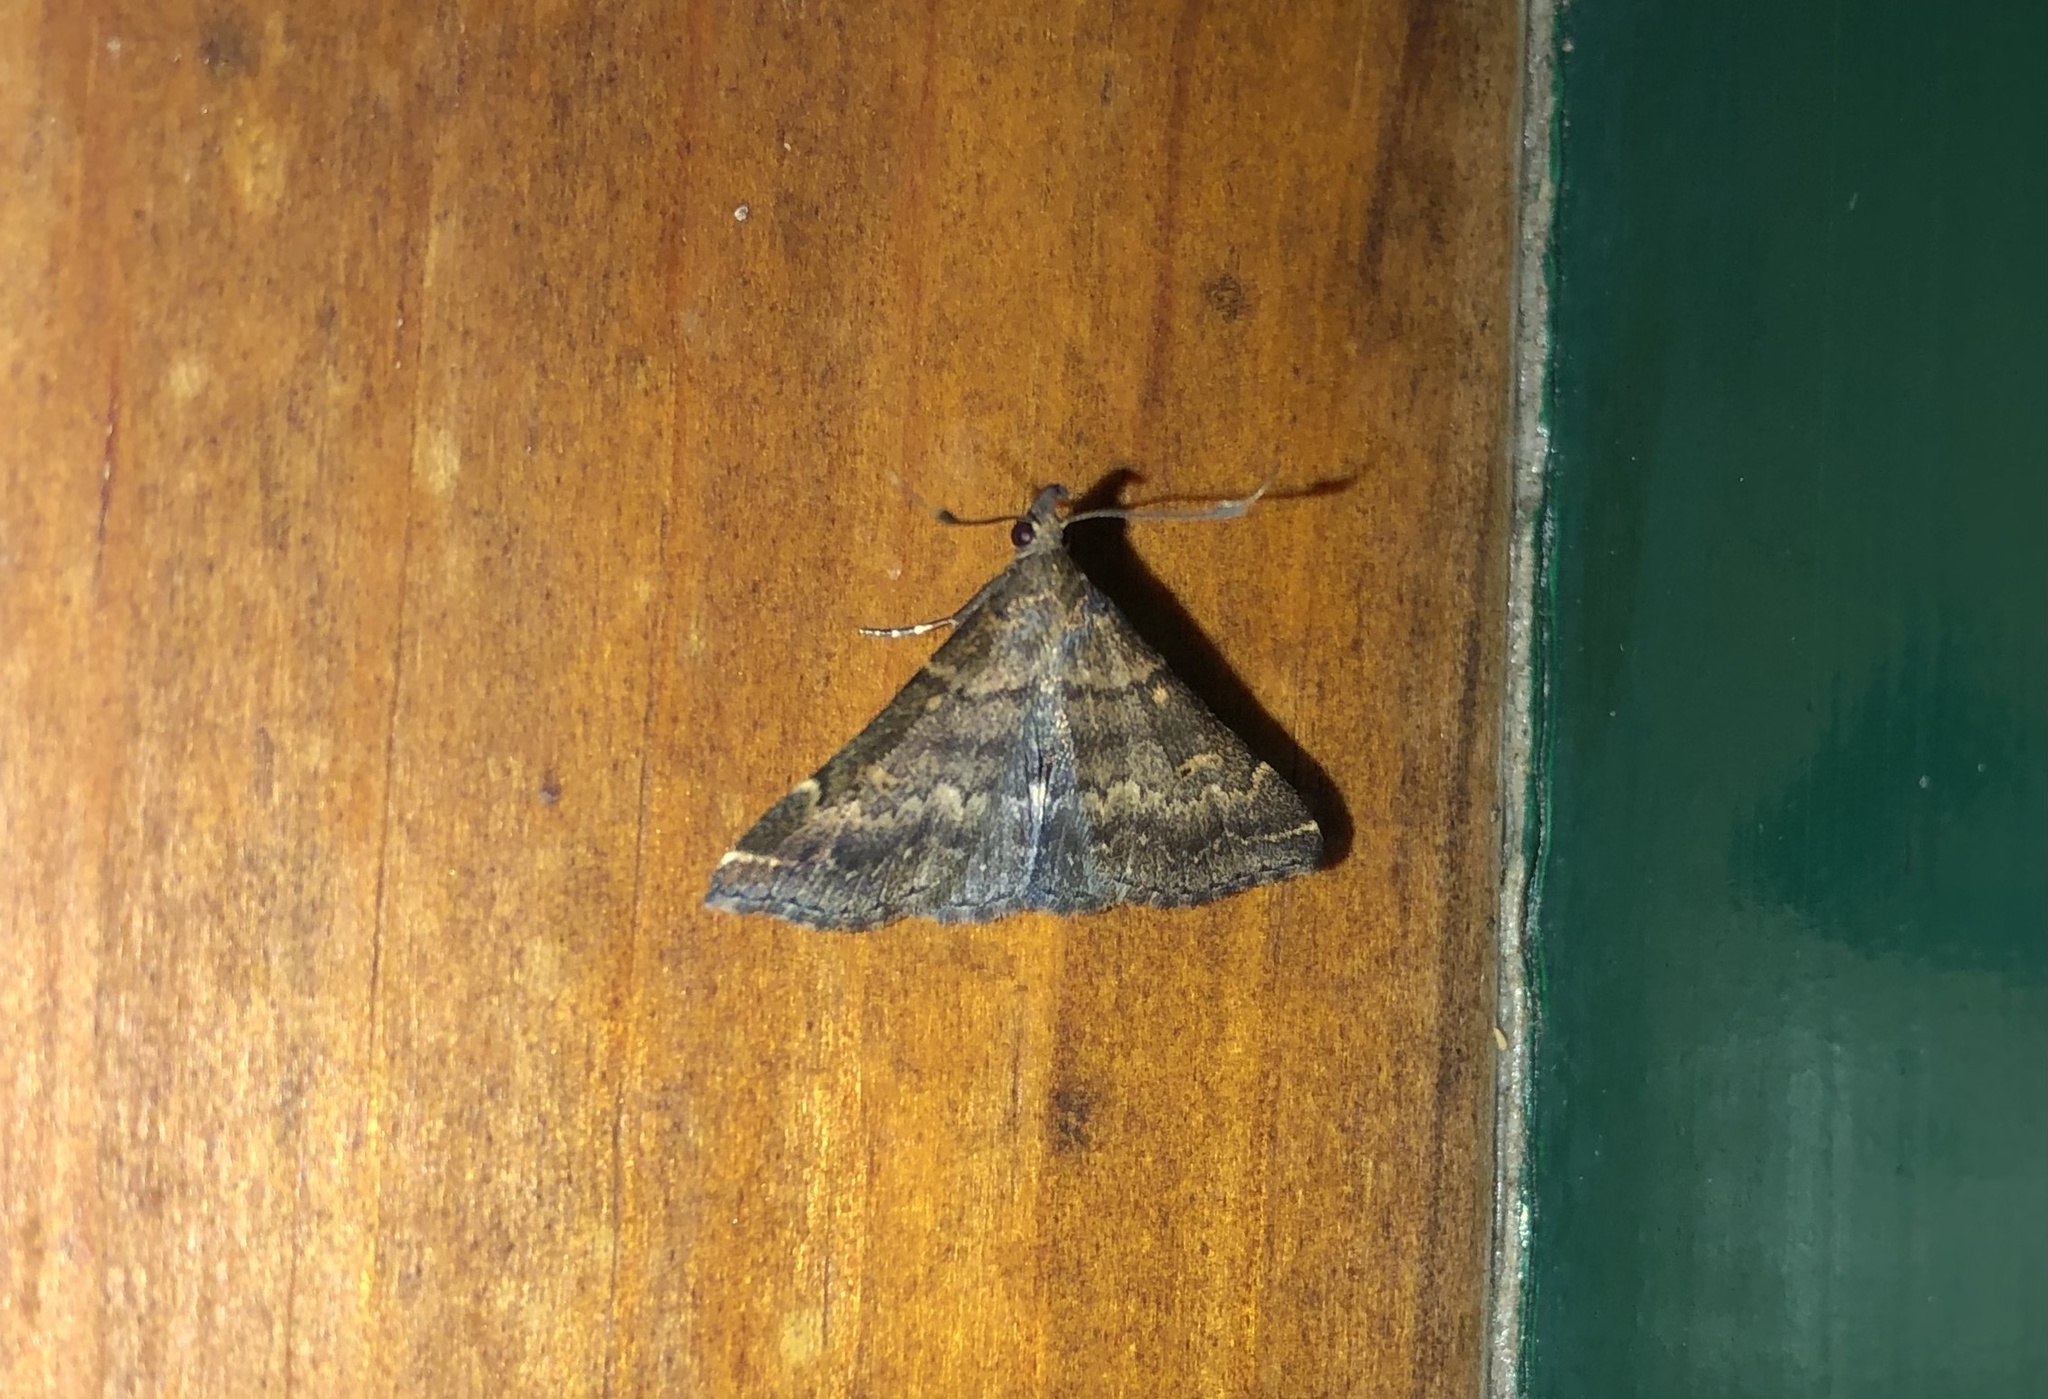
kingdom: Animalia
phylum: Arthropoda
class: Insecta
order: Lepidoptera
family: Erebidae
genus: Renia
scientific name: Renia factiosalis
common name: Sociable renia moth
